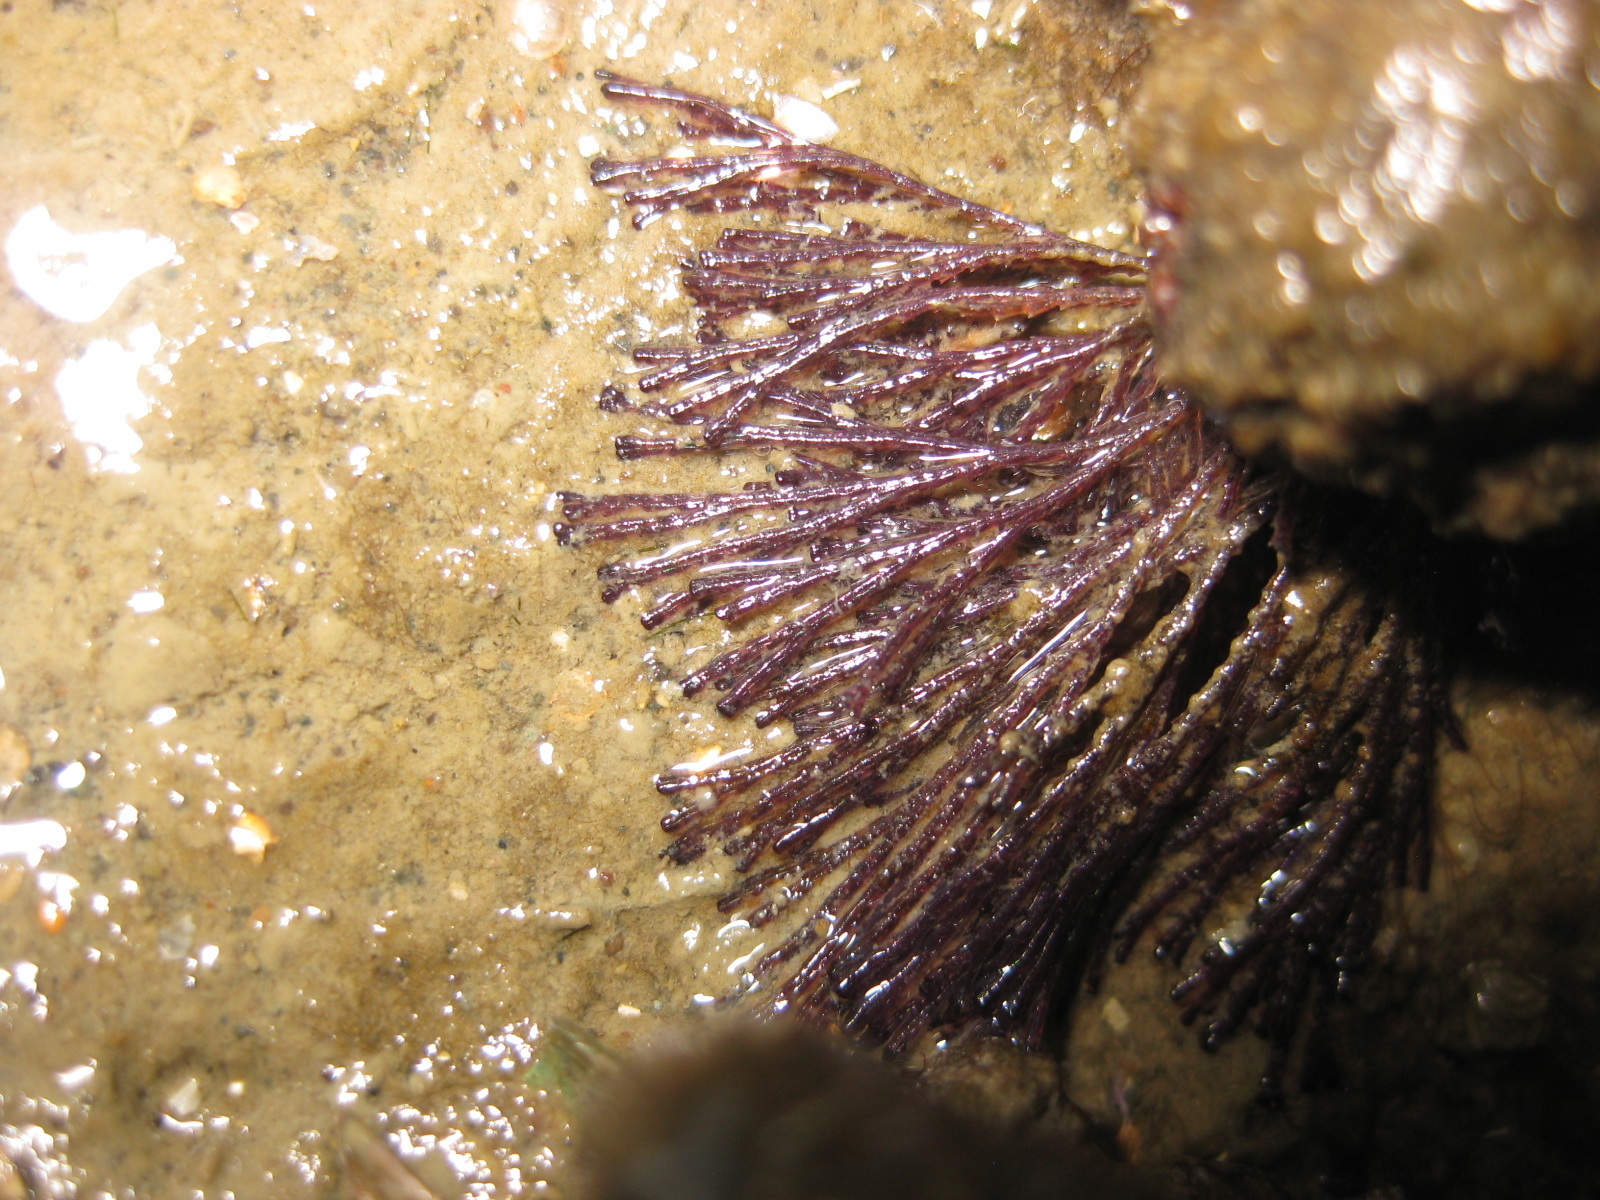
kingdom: Animalia
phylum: Bryozoa
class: Gymnolaemata
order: Cheilostomatida
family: Bugulidae
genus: Bugula
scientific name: Bugula neritina
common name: Brown bryozoan
